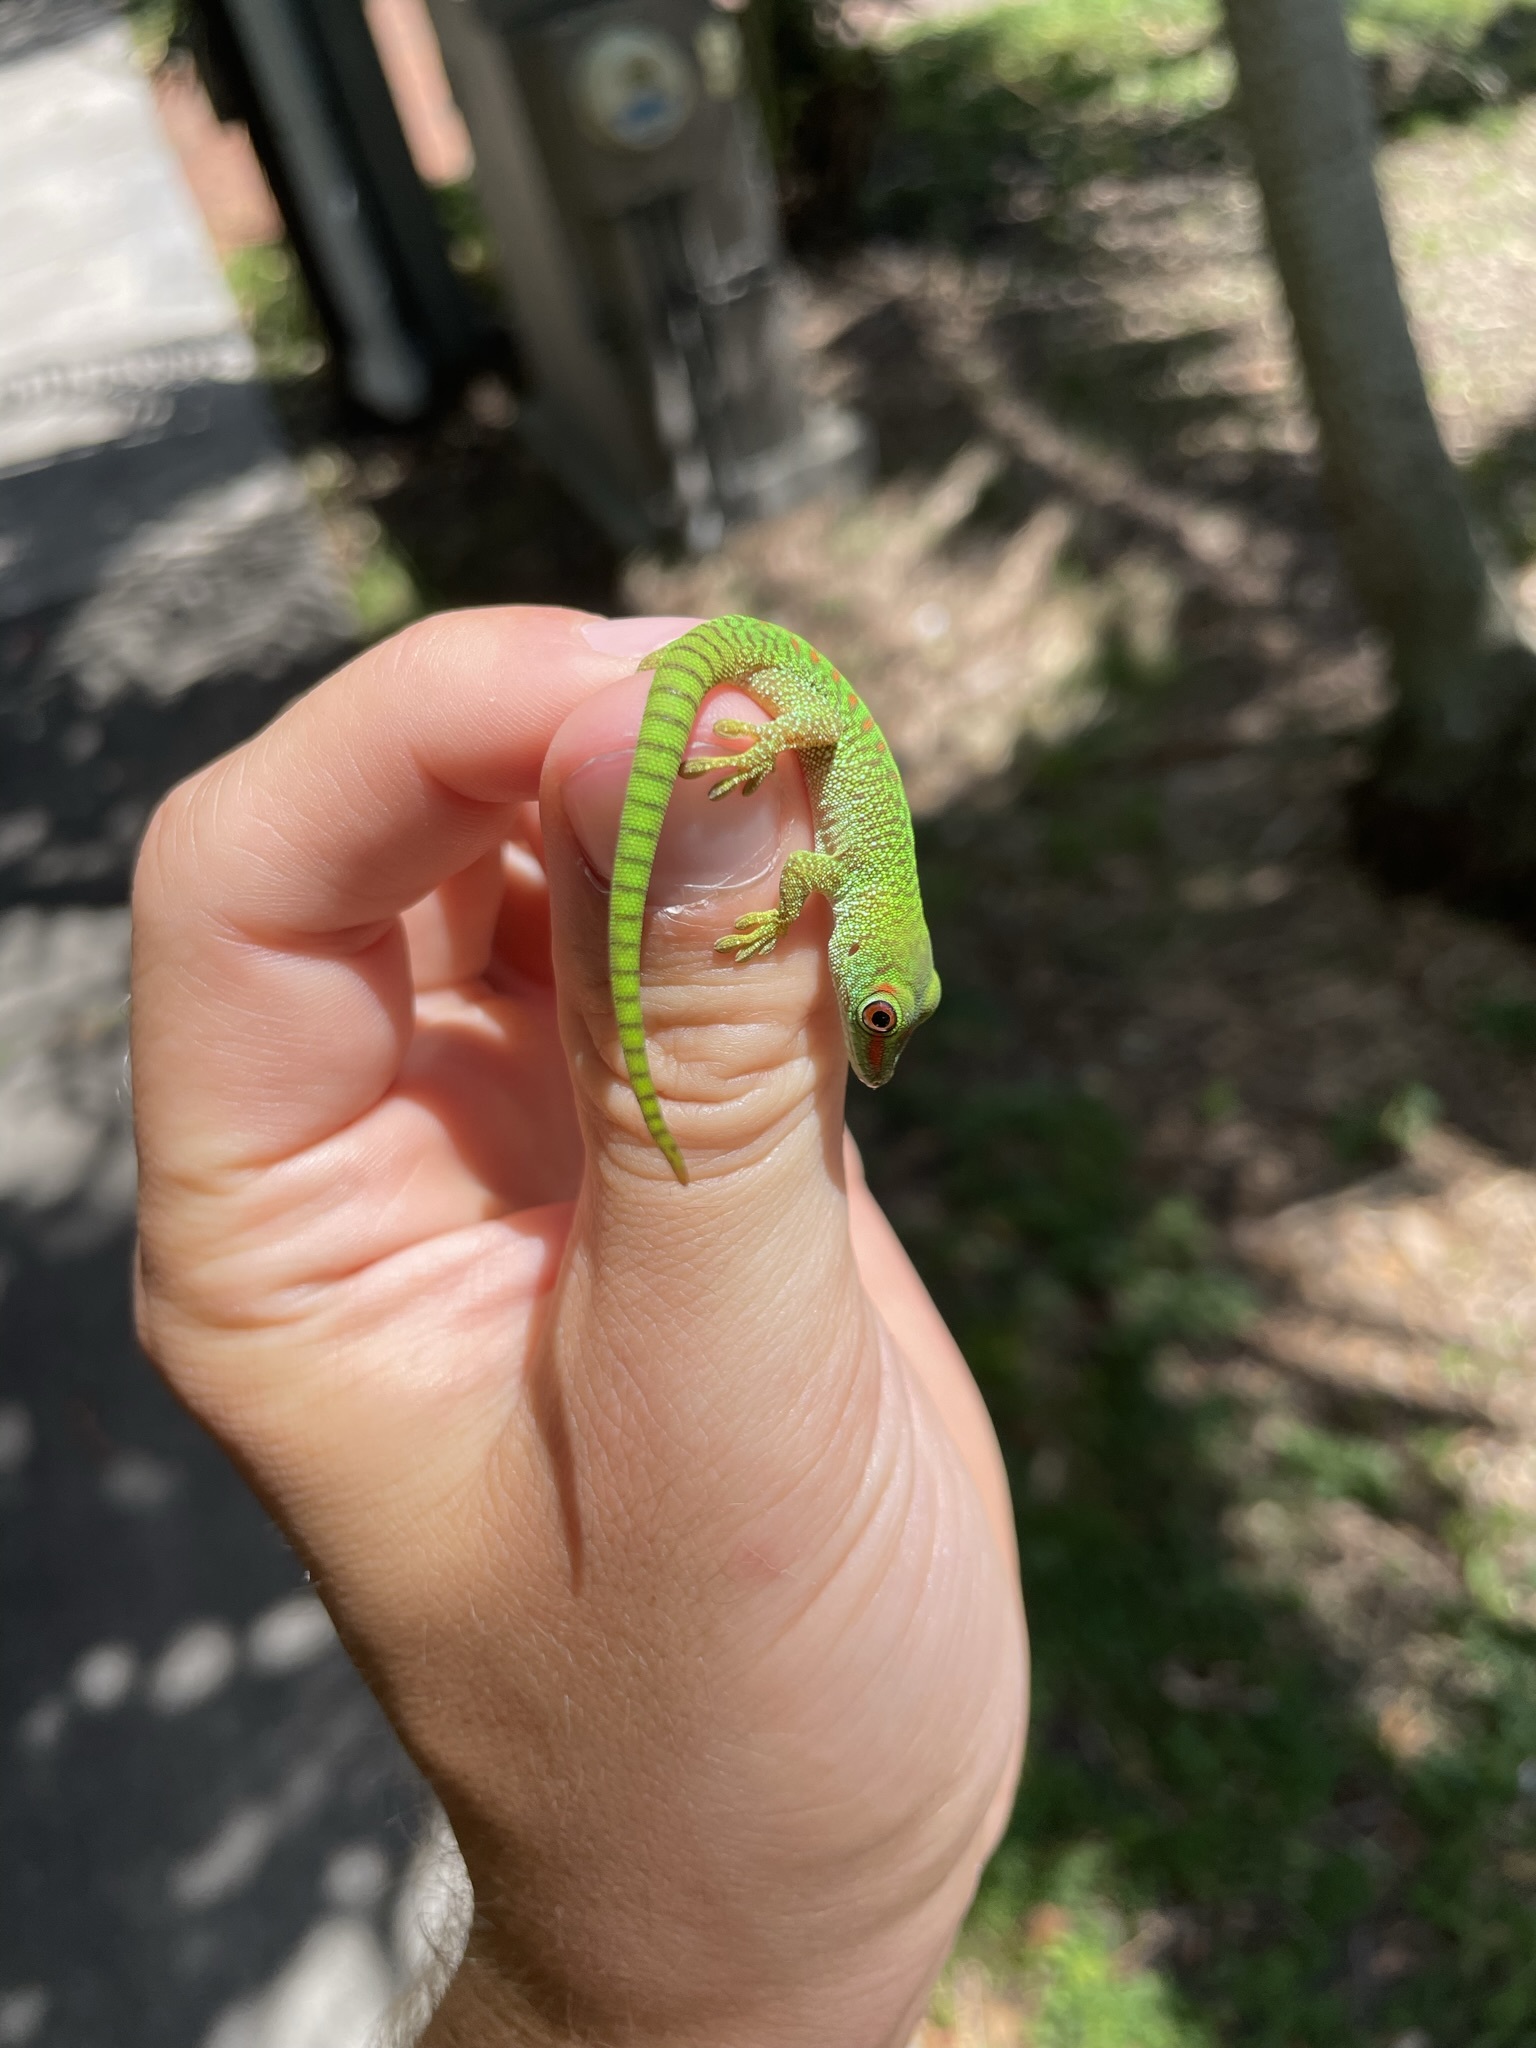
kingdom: Animalia
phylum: Chordata
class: Squamata
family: Gekkonidae
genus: Phelsuma
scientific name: Phelsuma grandis
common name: Madagascar giant day gecko
